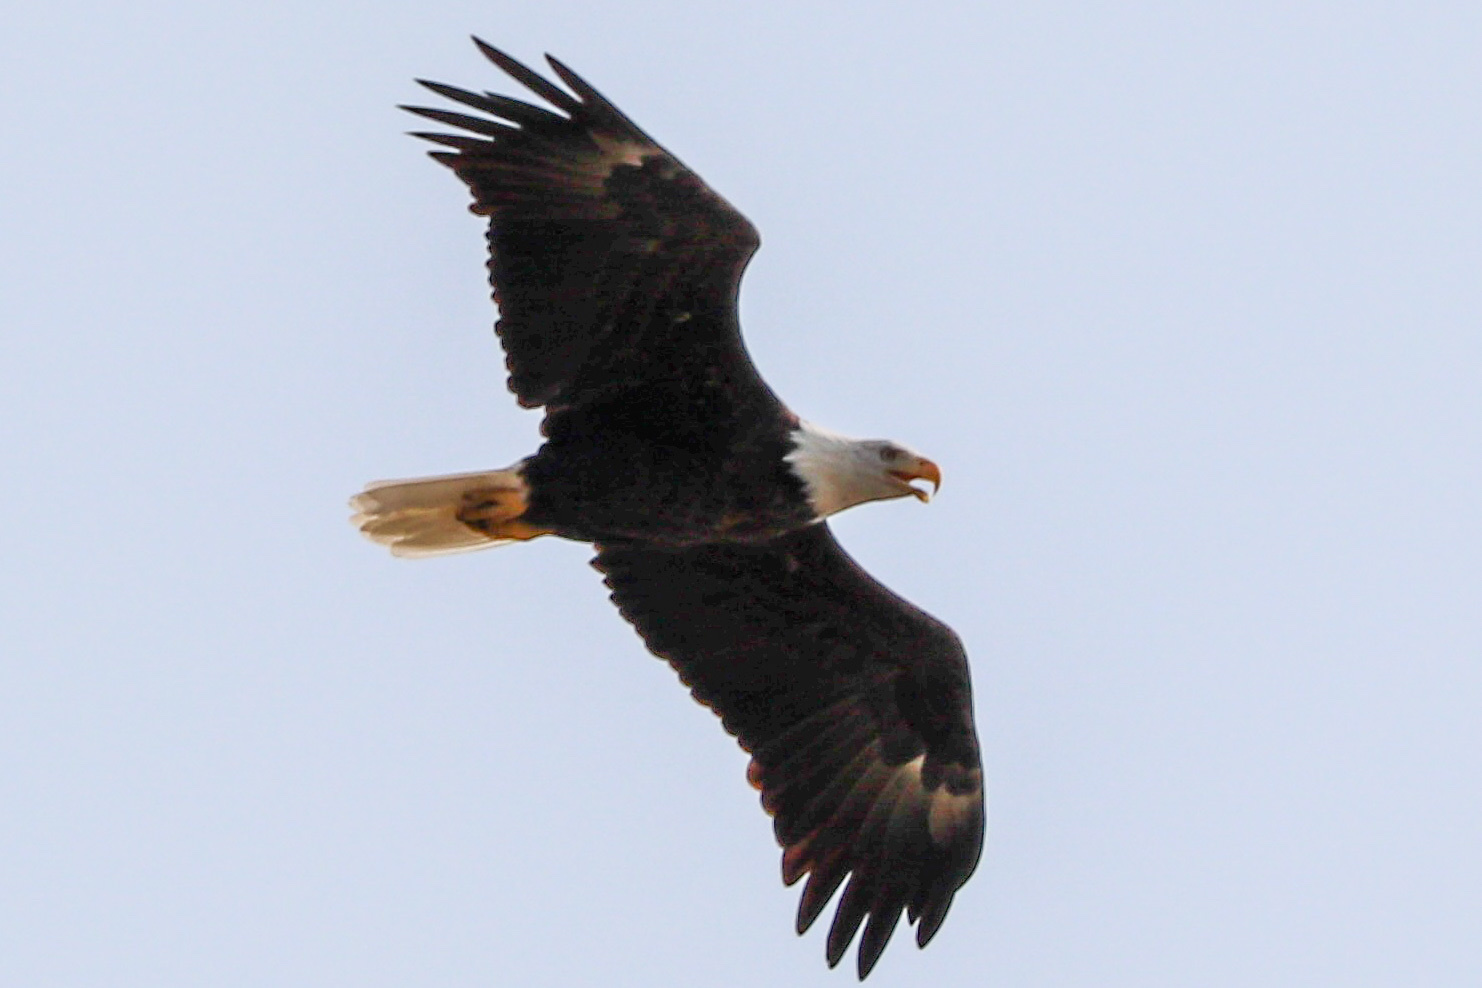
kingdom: Animalia
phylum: Chordata
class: Aves
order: Accipitriformes
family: Accipitridae
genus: Haliaeetus
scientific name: Haliaeetus leucocephalus
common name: Bald eagle
